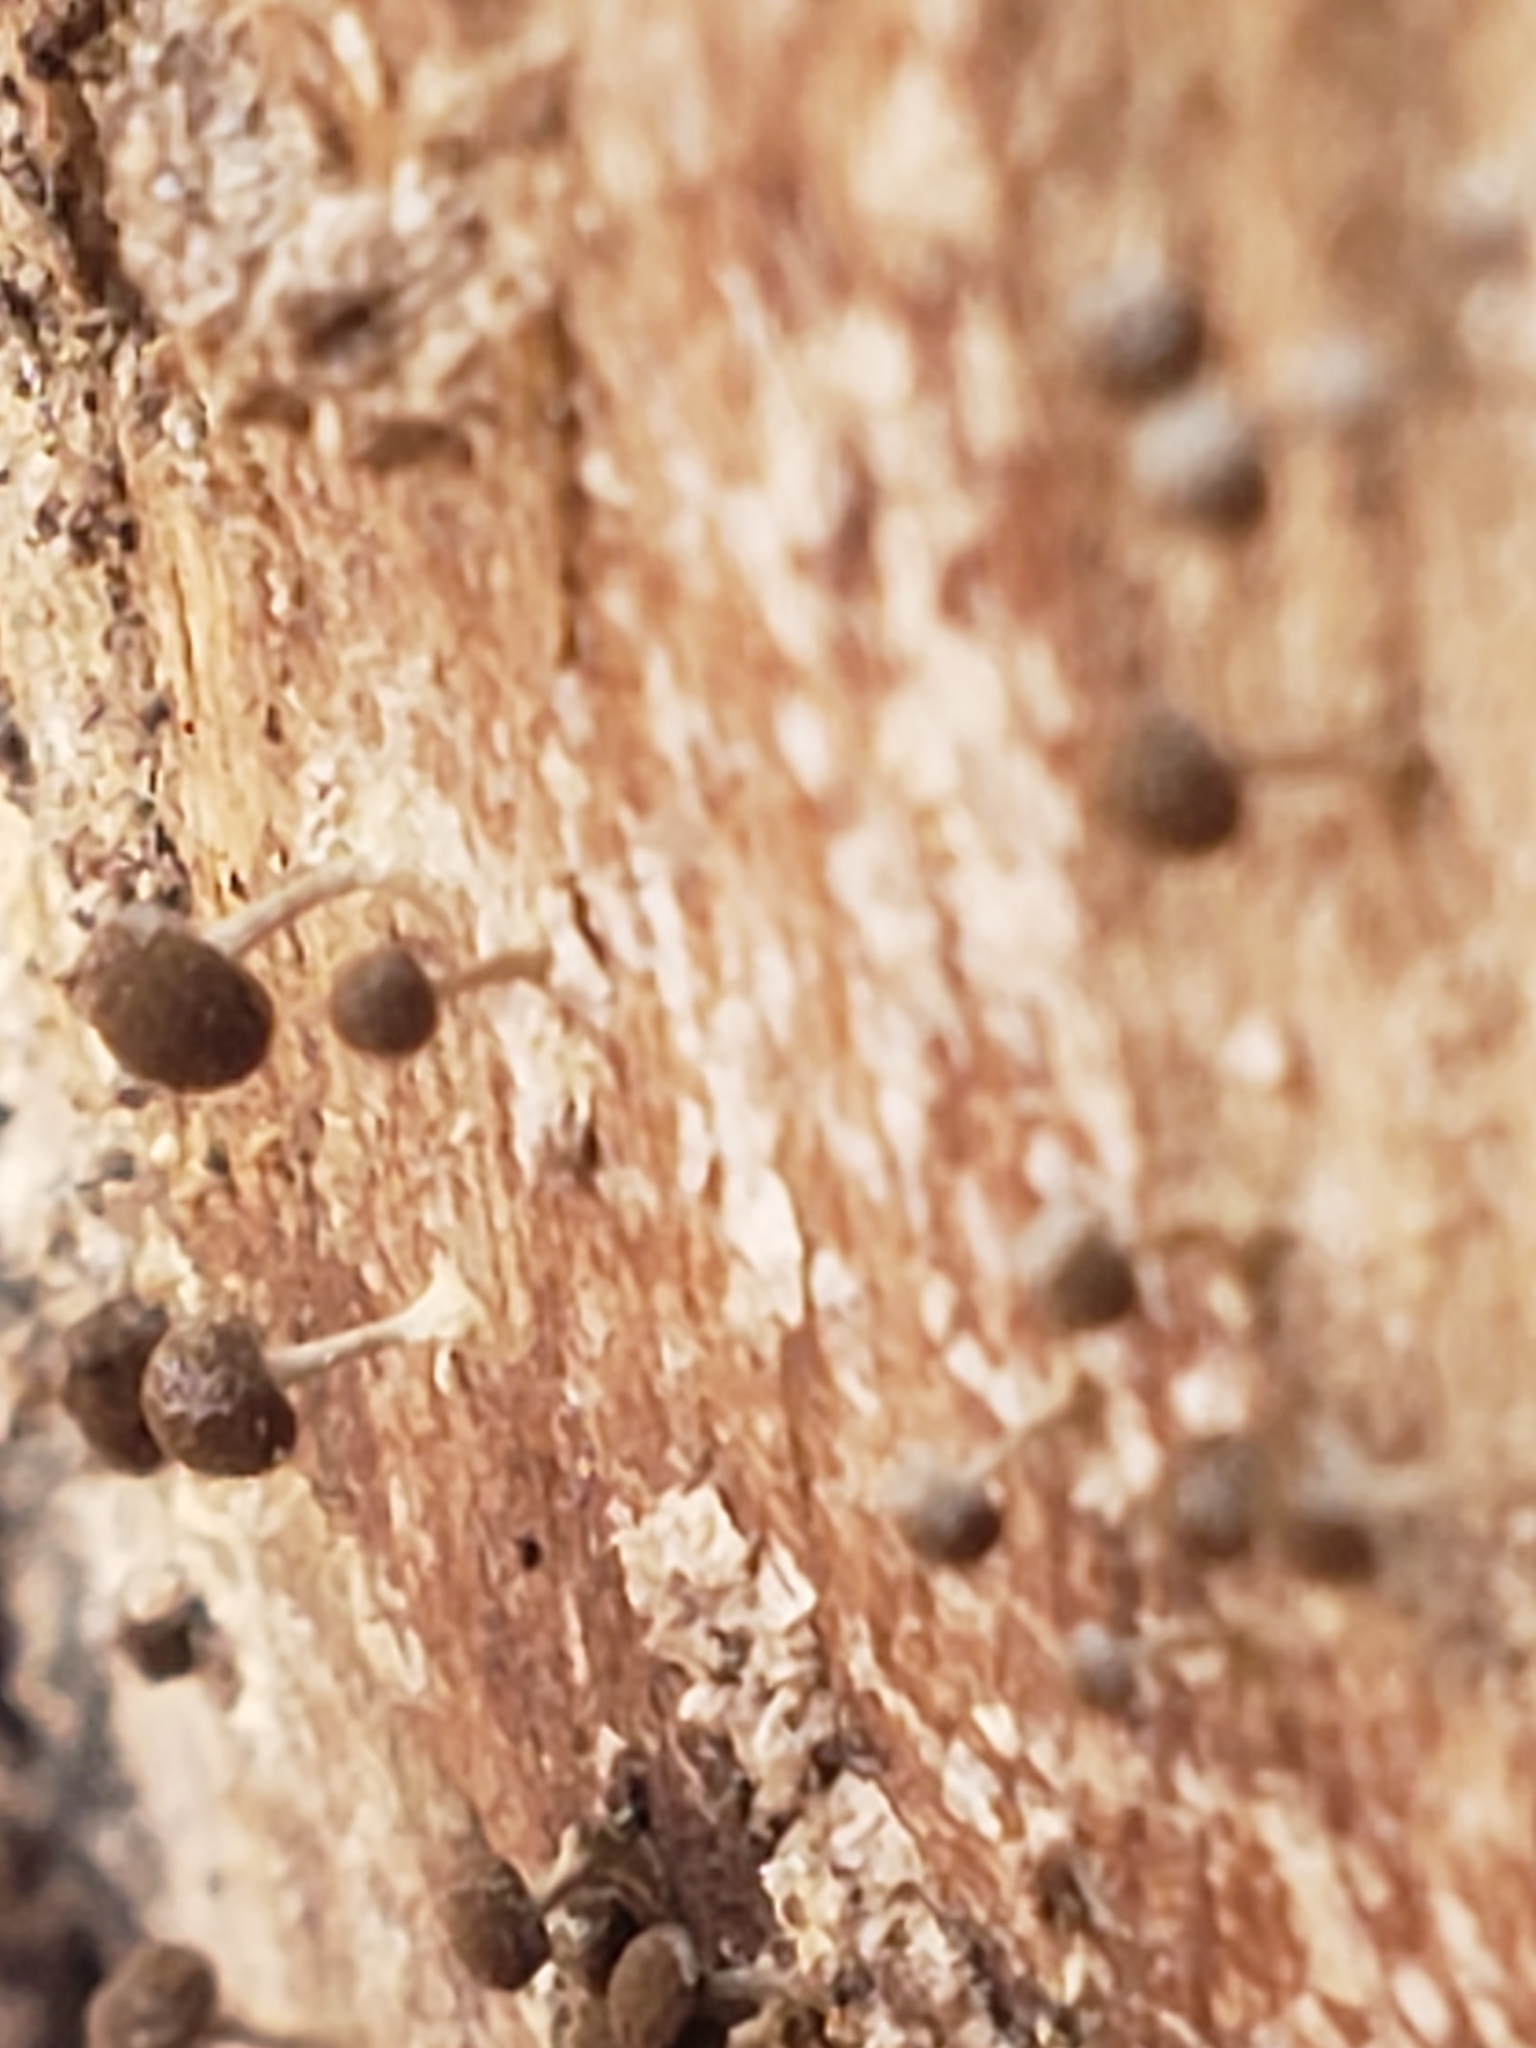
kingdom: Fungi
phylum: Basidiomycota
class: Atractiellomycetes
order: Atractiellales
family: Phleogenaceae
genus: Phleogena
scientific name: Phleogena faginea
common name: Fenugreek stalkball
